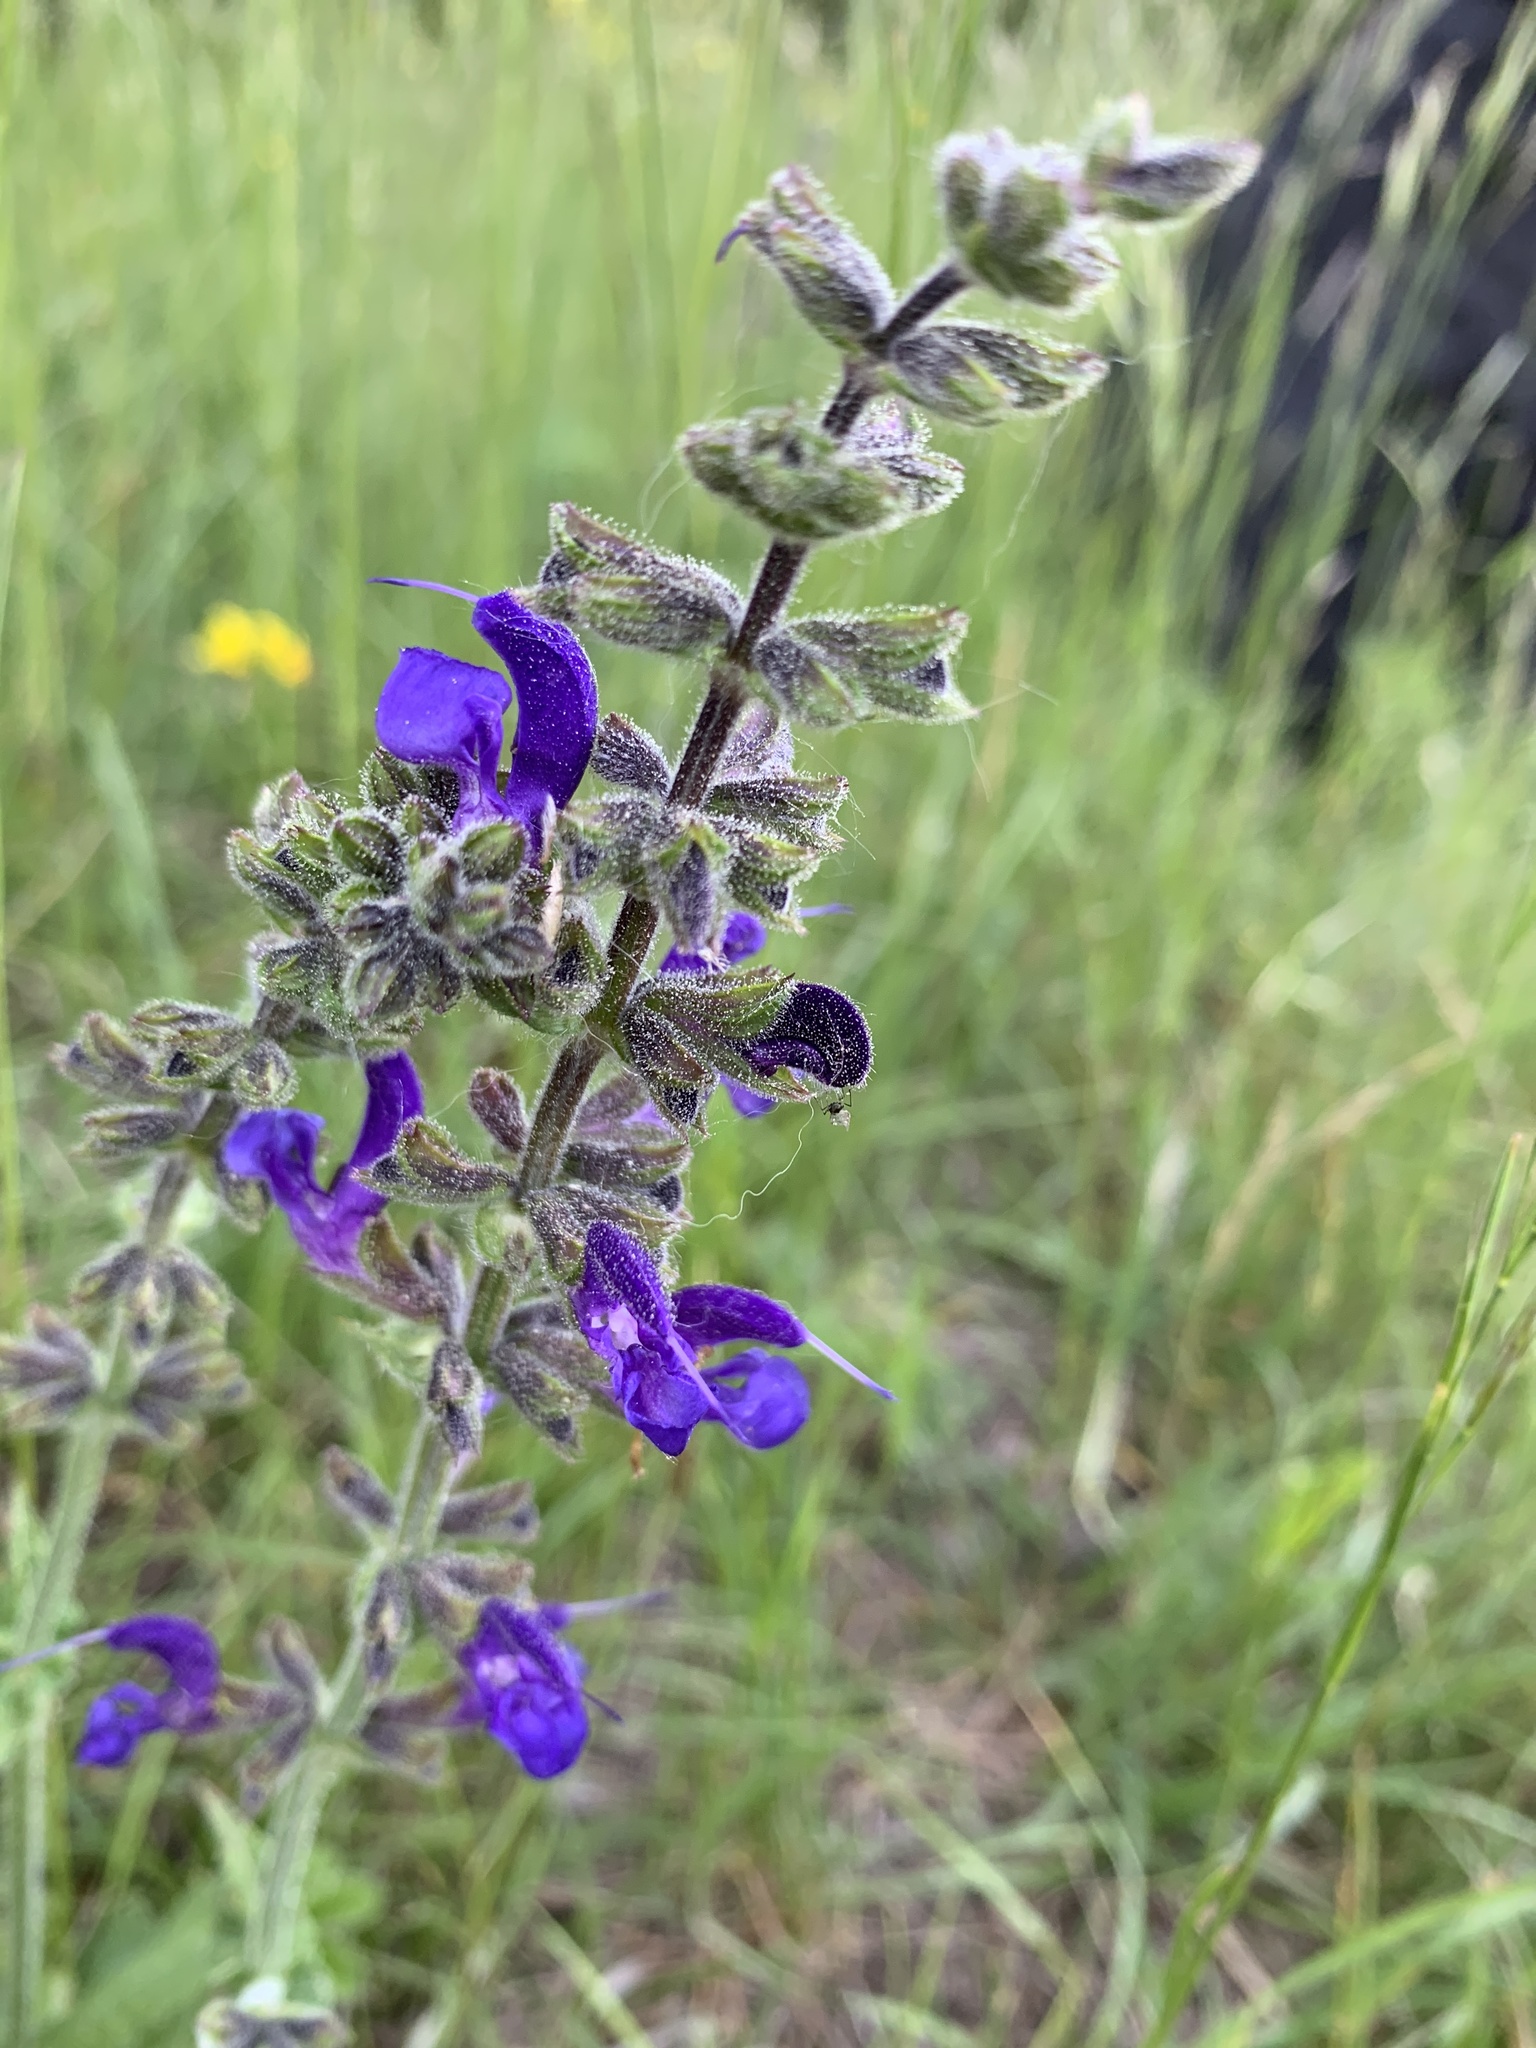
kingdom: Plantae
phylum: Tracheophyta
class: Magnoliopsida
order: Lamiales
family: Lamiaceae
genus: Salvia
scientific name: Salvia pratensis
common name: Meadow sage
